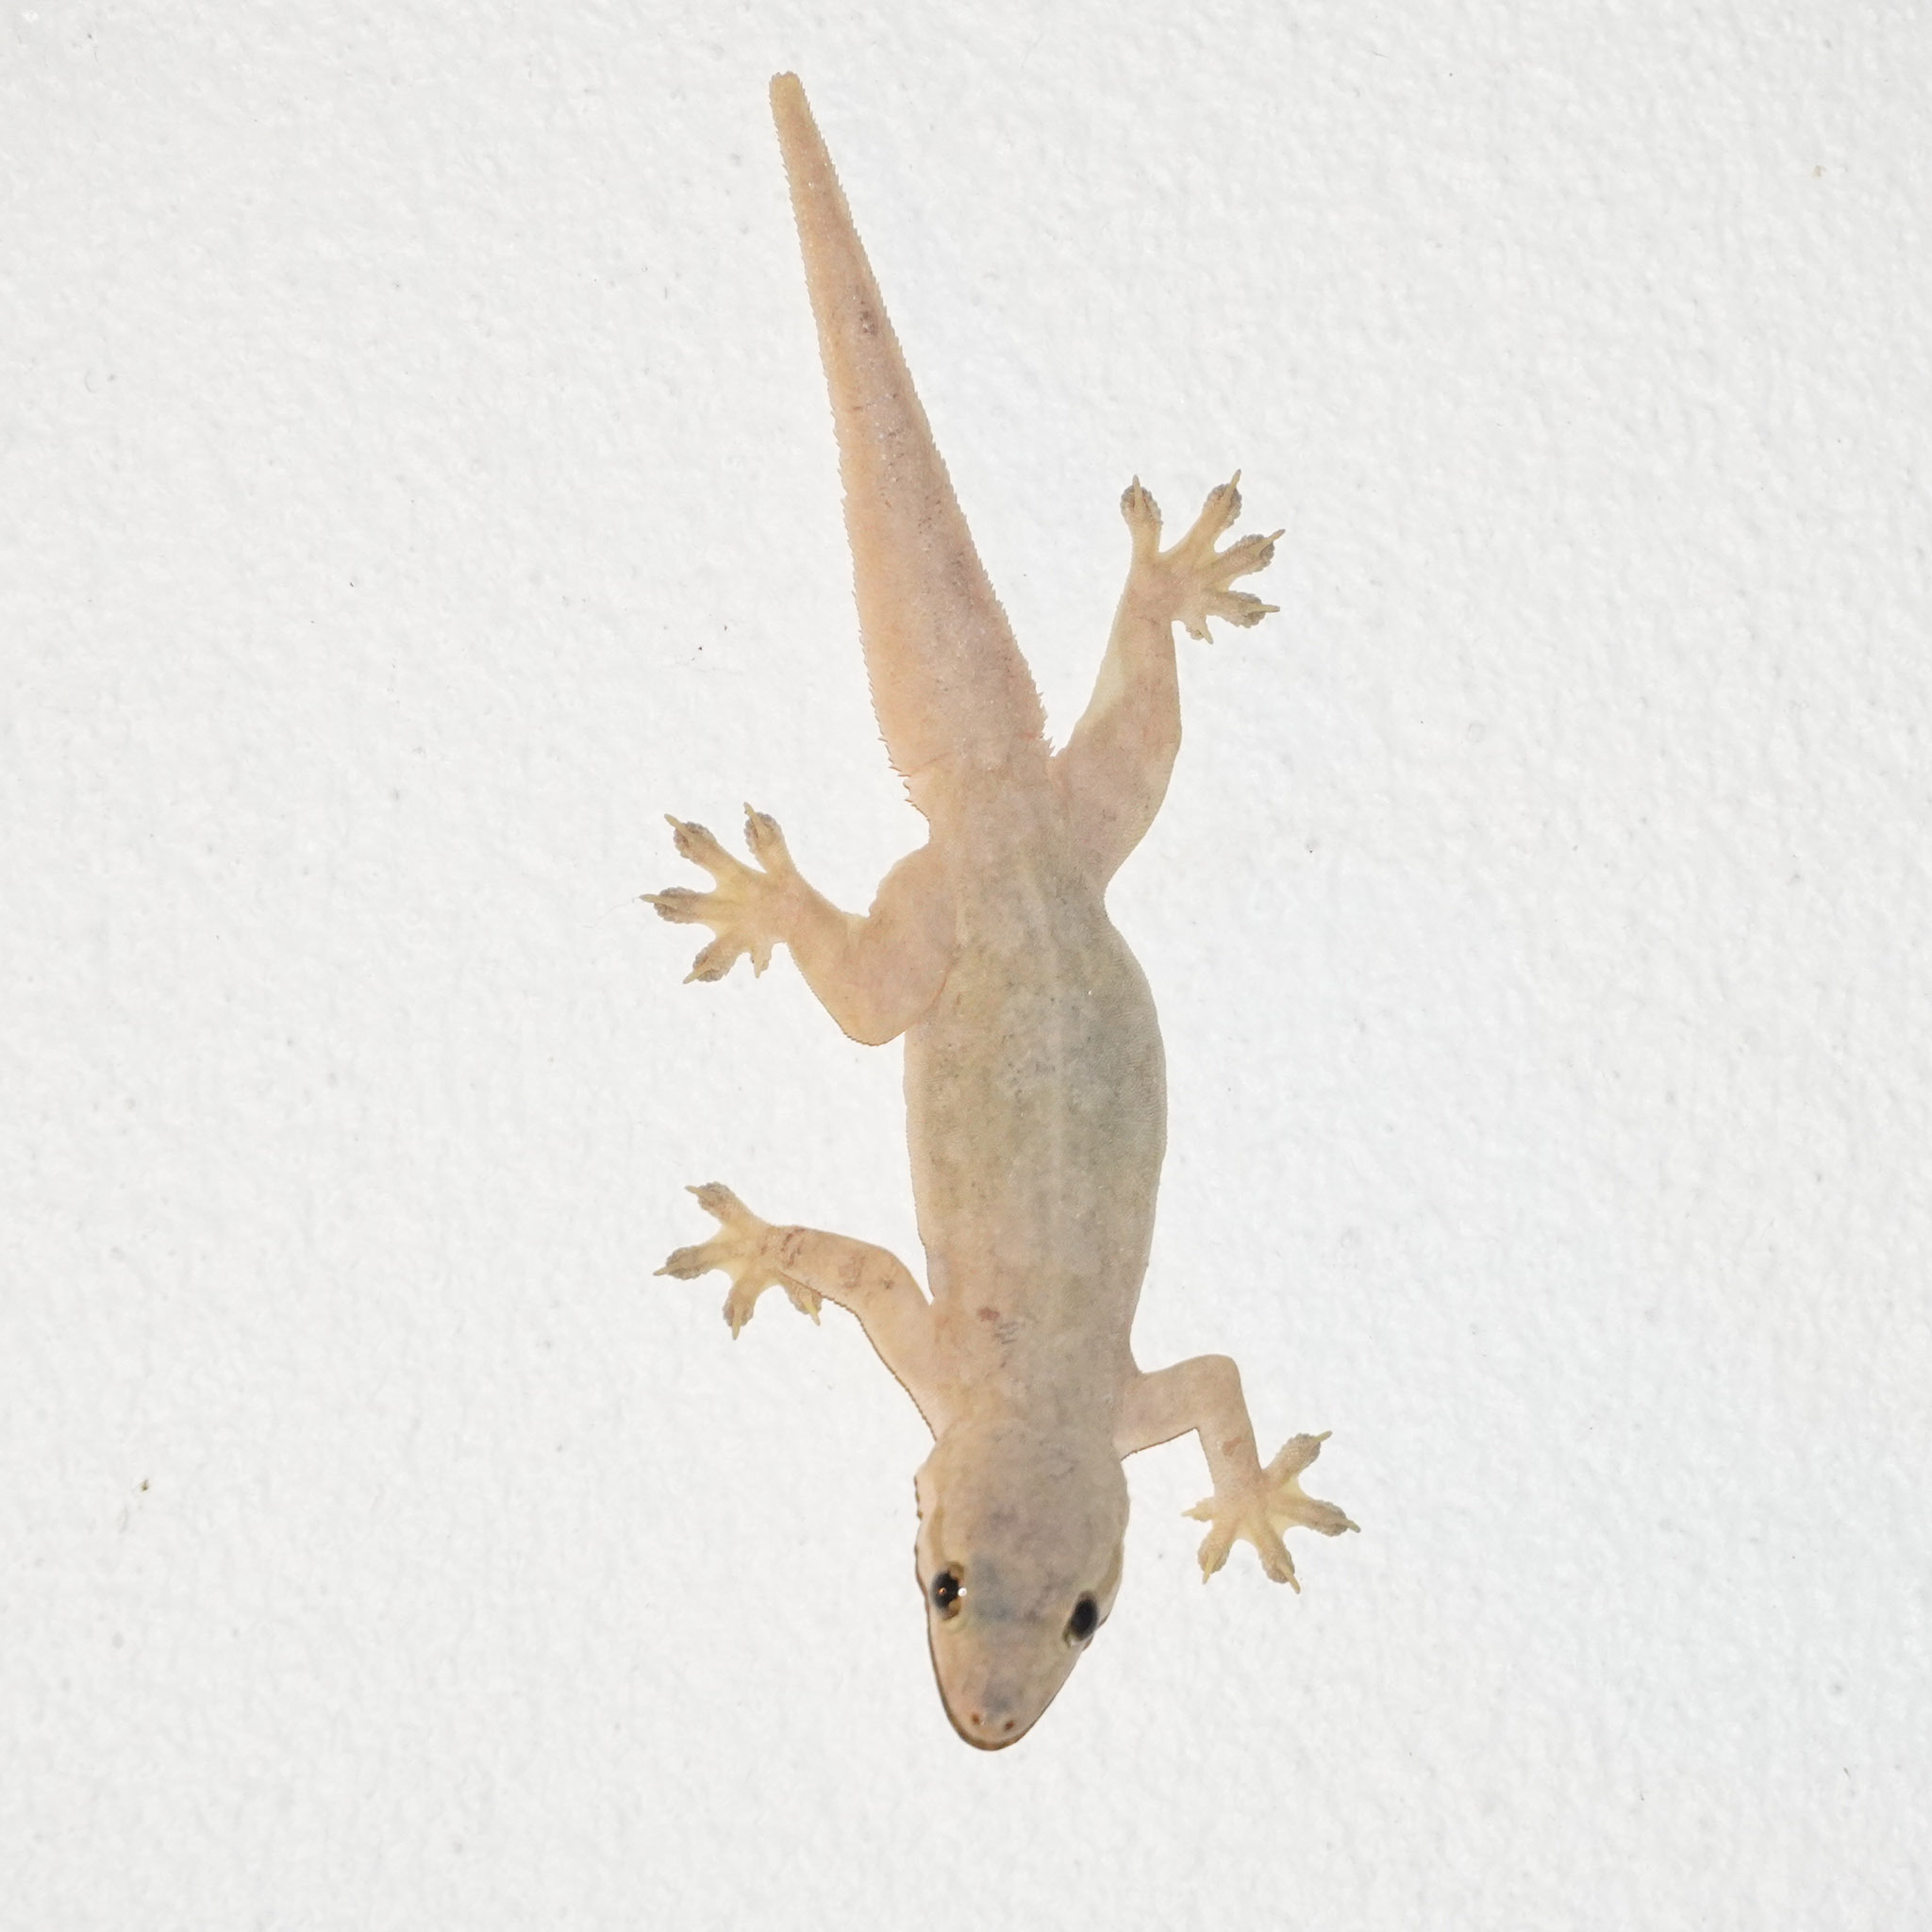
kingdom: Animalia
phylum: Chordata
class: Squamata
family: Gekkonidae
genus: Hemidactylus
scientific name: Hemidactylus platyurus
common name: Flat-tailed house gecko
